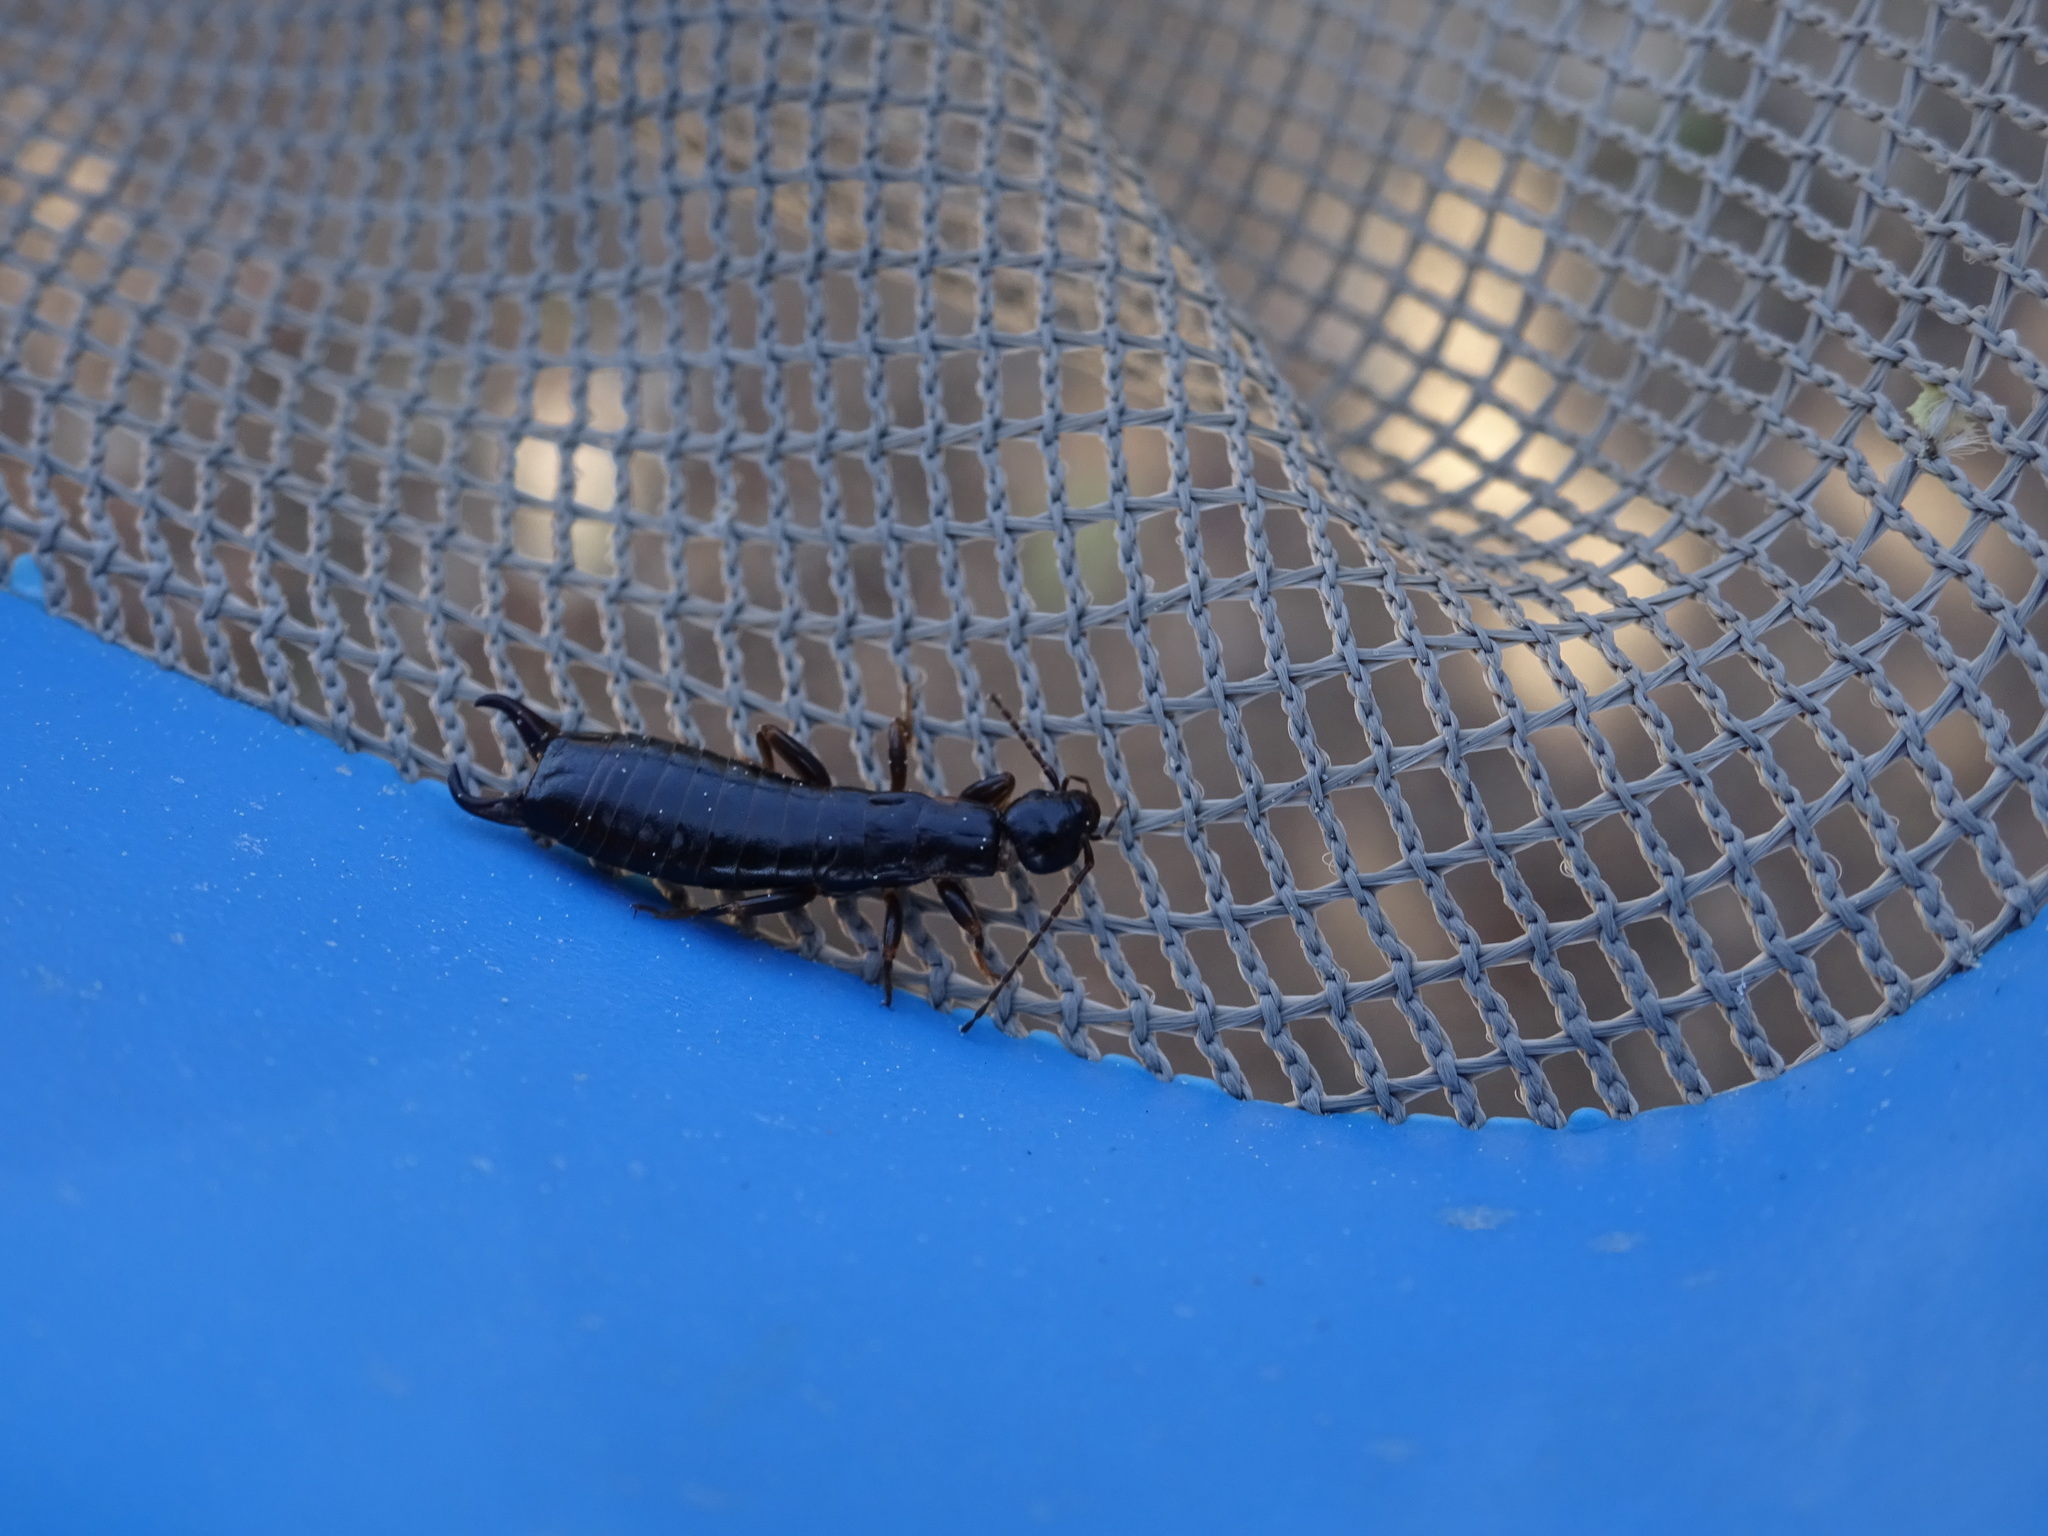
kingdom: Animalia
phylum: Arthropoda
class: Insecta
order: Dermaptera
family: Anisolabididae
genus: Euborellia
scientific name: Euborellia moesta
